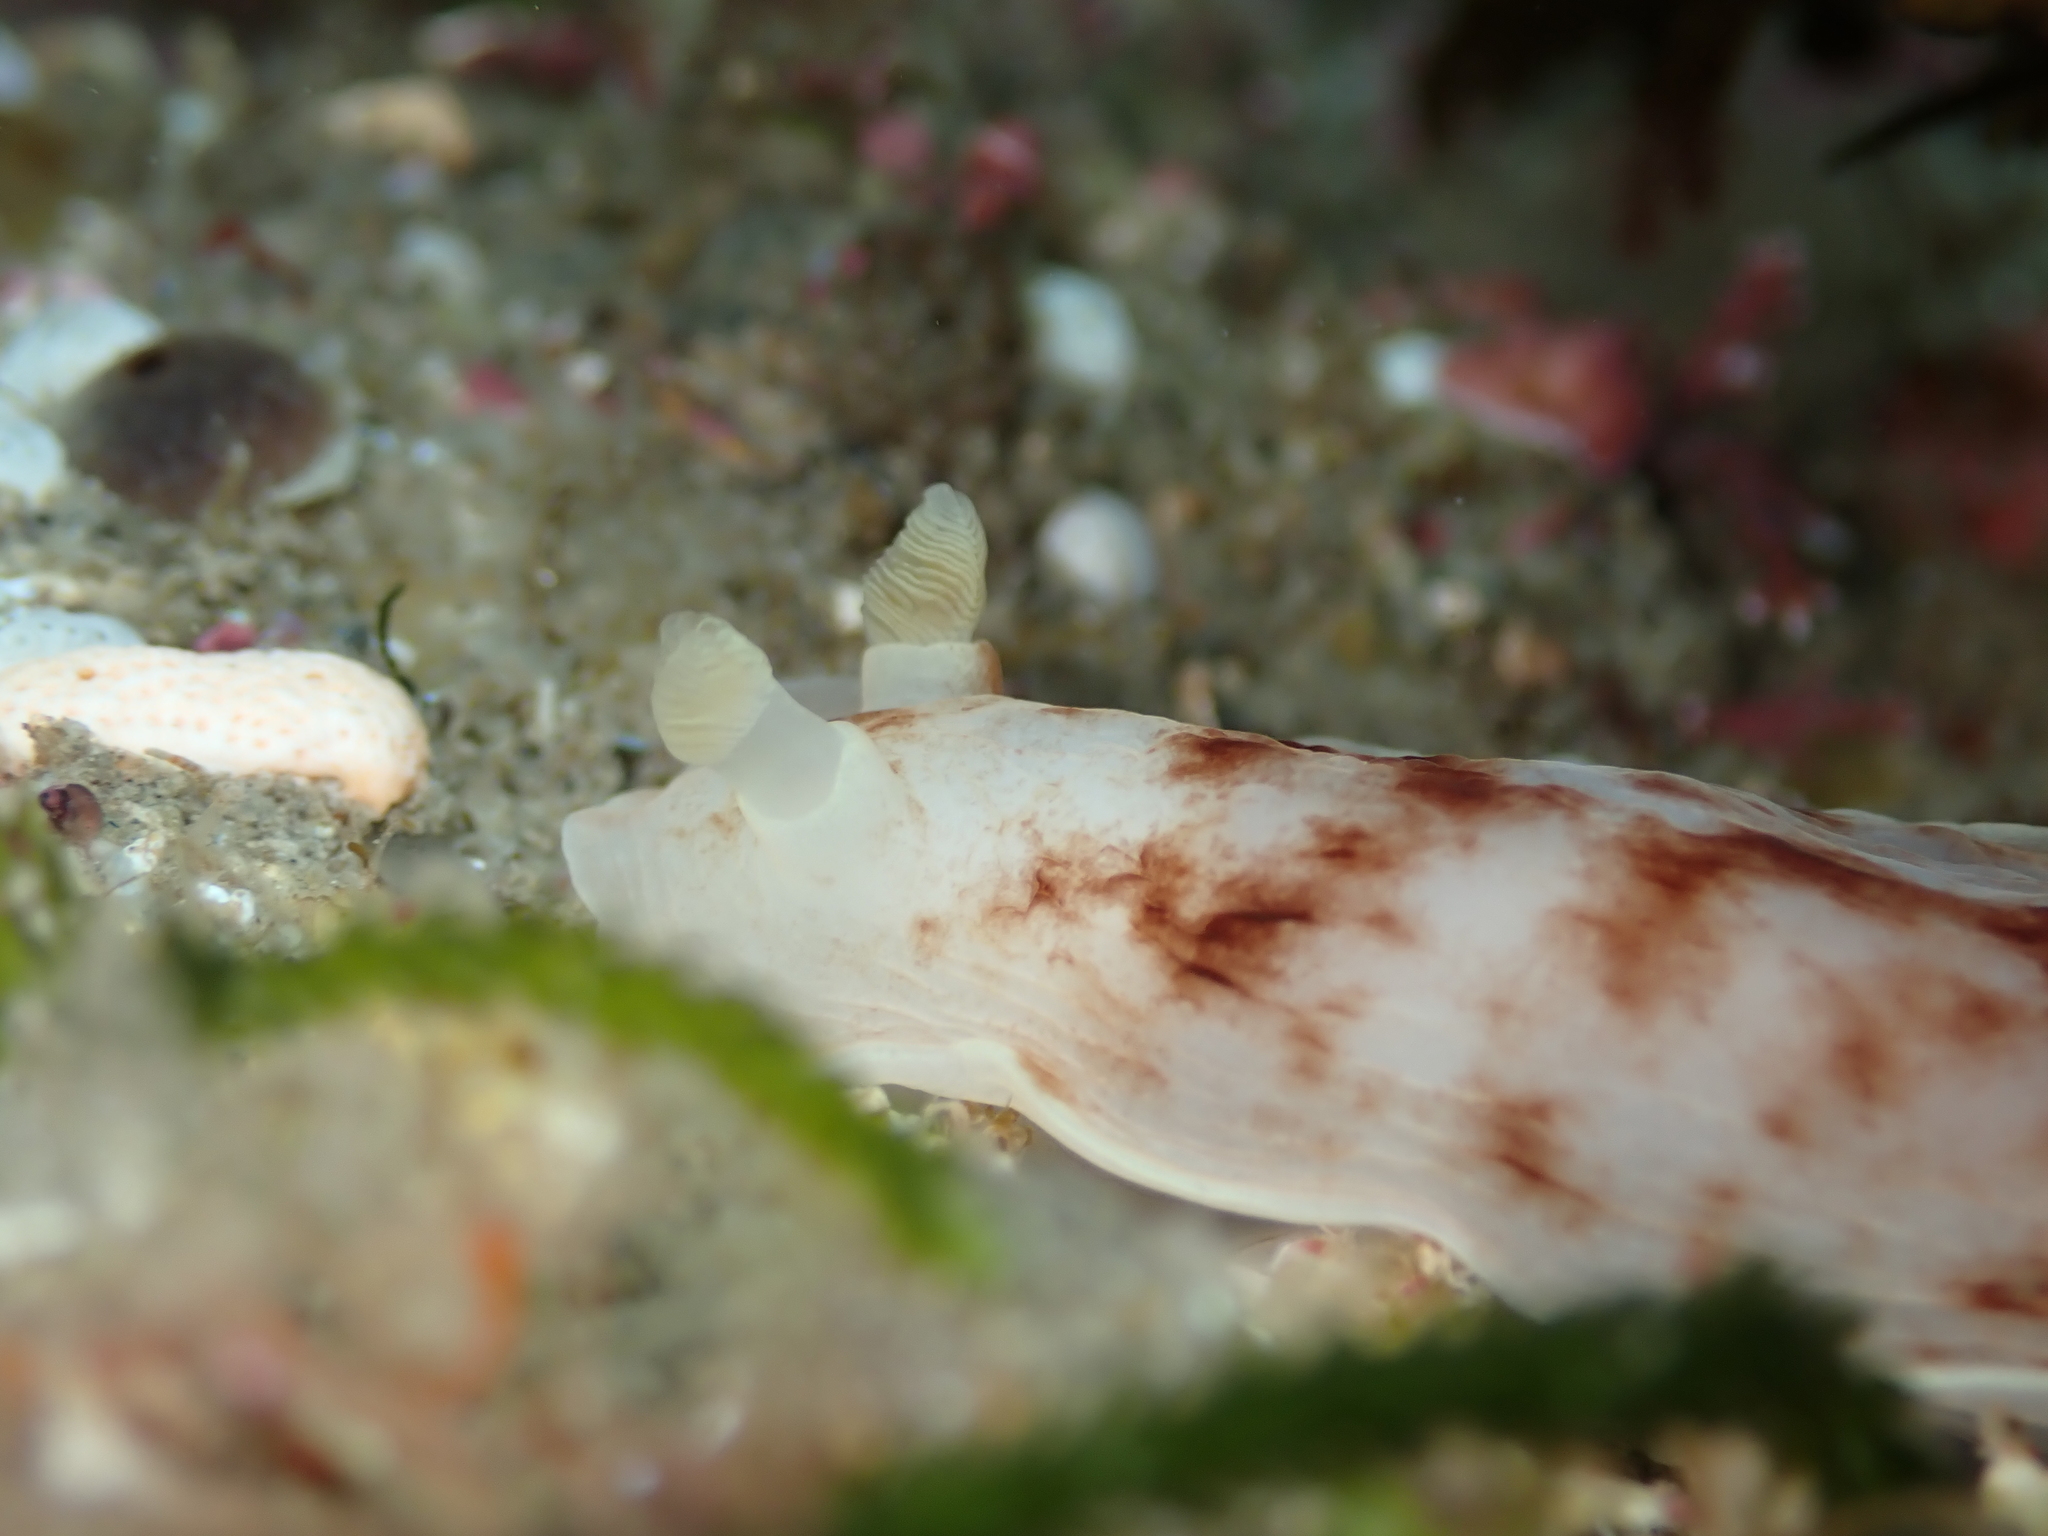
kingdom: Animalia
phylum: Mollusca
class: Gastropoda
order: Nudibranchia
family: Dorididae
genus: Aphelodoris
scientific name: Aphelodoris luctuosa
